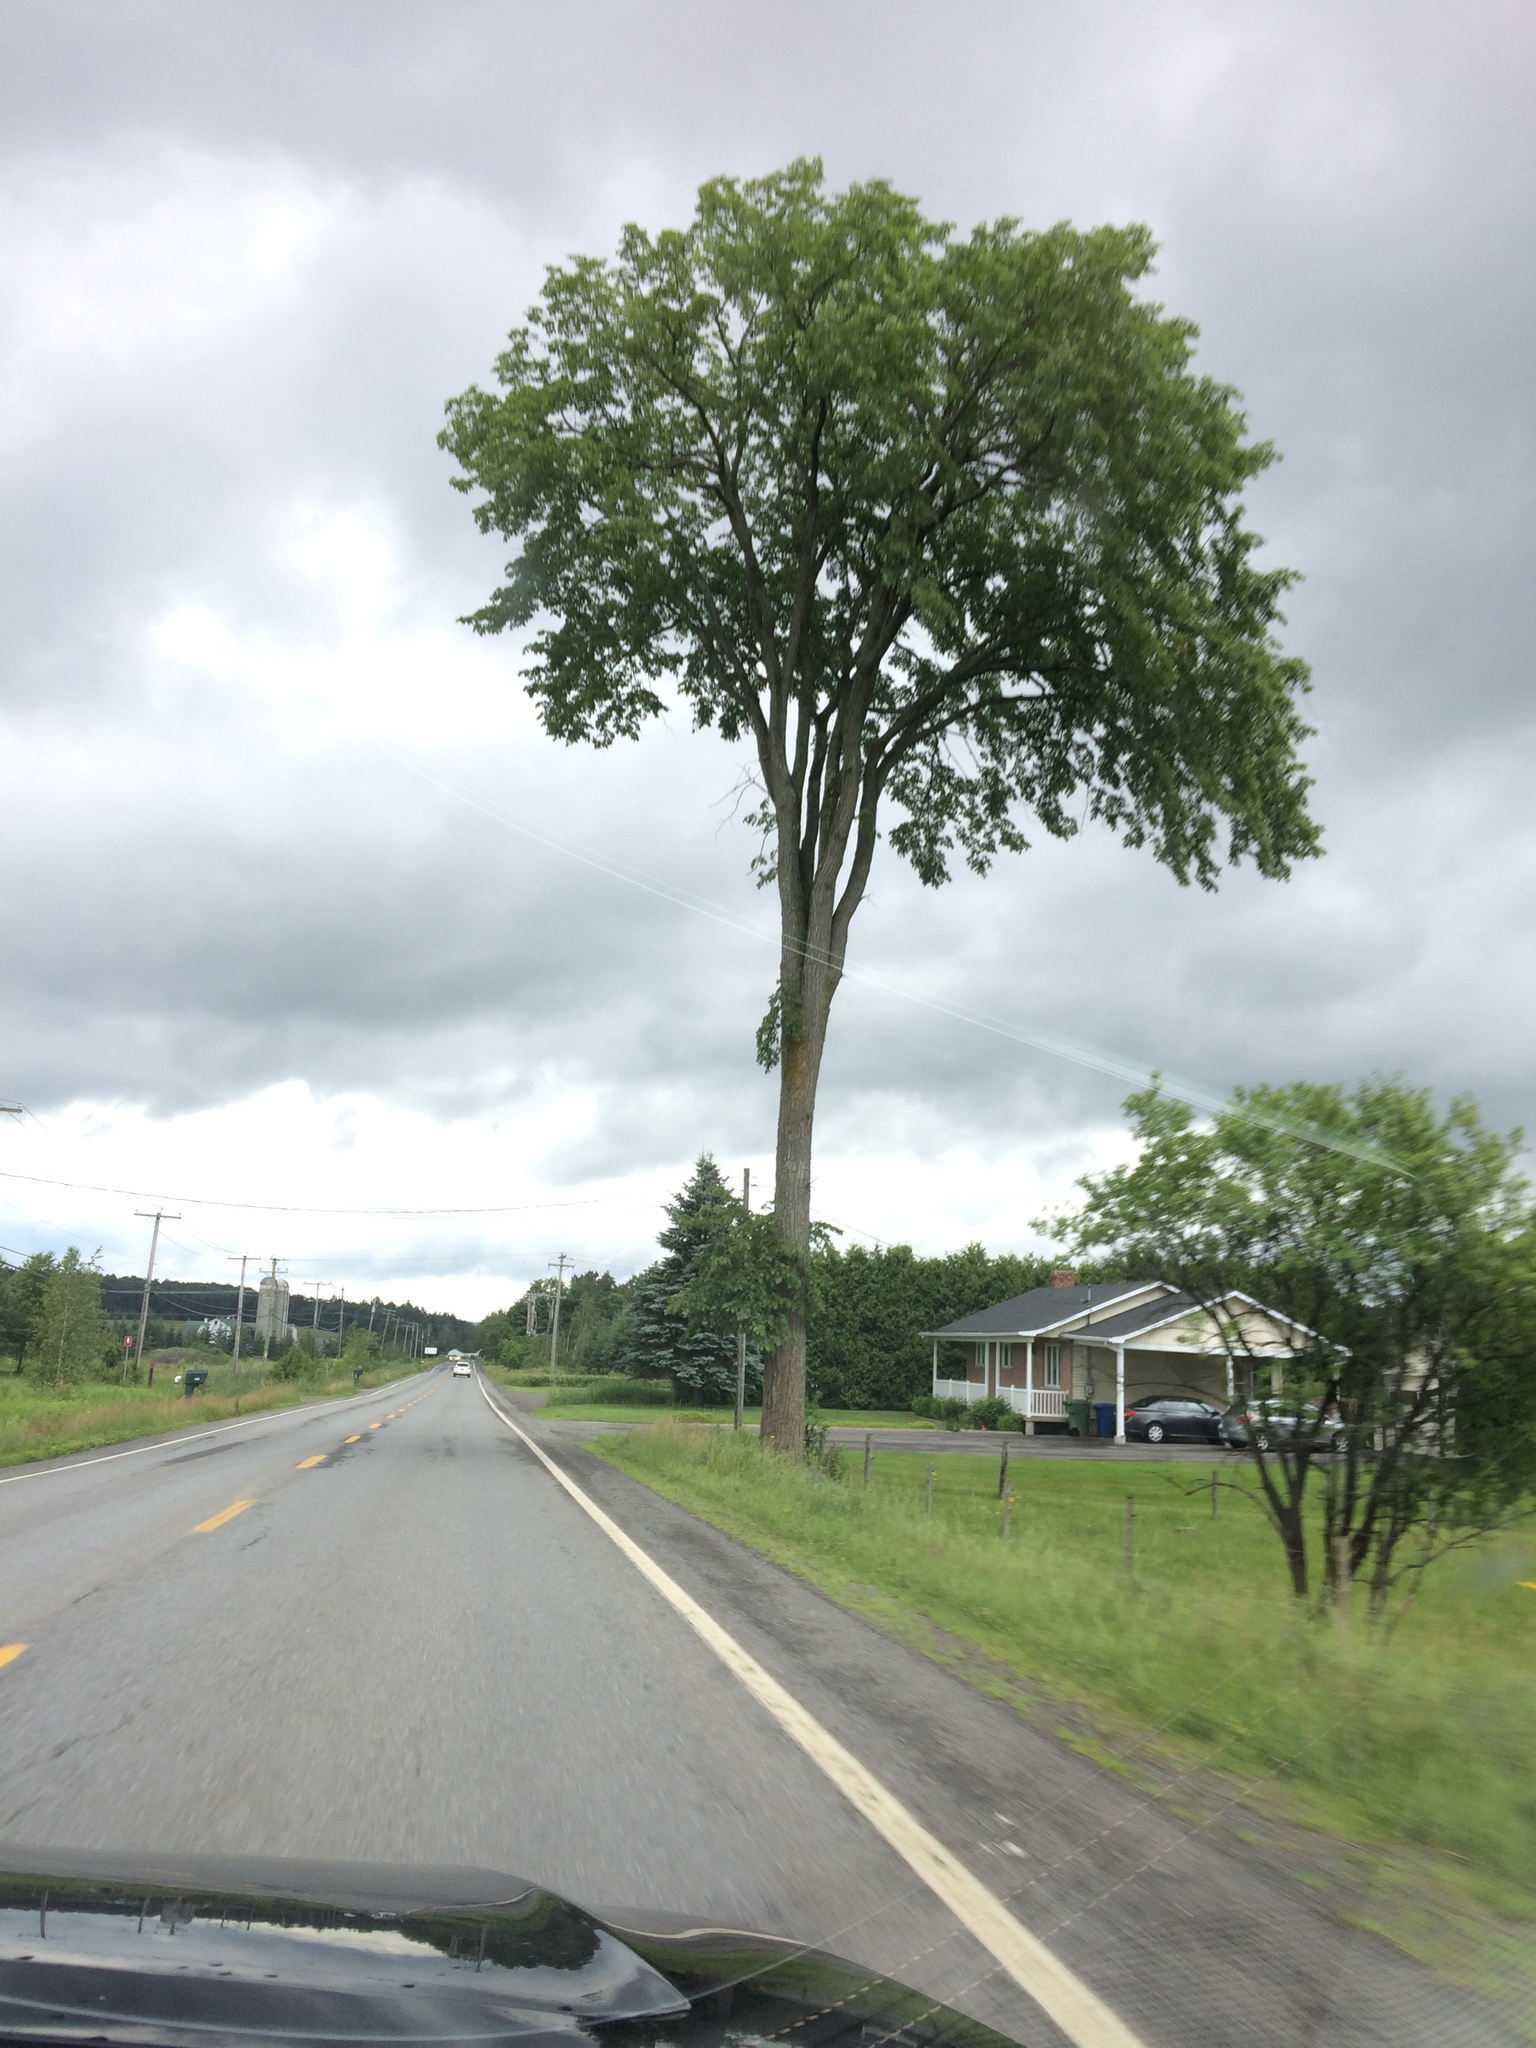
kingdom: Plantae
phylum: Tracheophyta
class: Magnoliopsida
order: Rosales
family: Ulmaceae
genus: Ulmus
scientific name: Ulmus americana
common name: American elm
